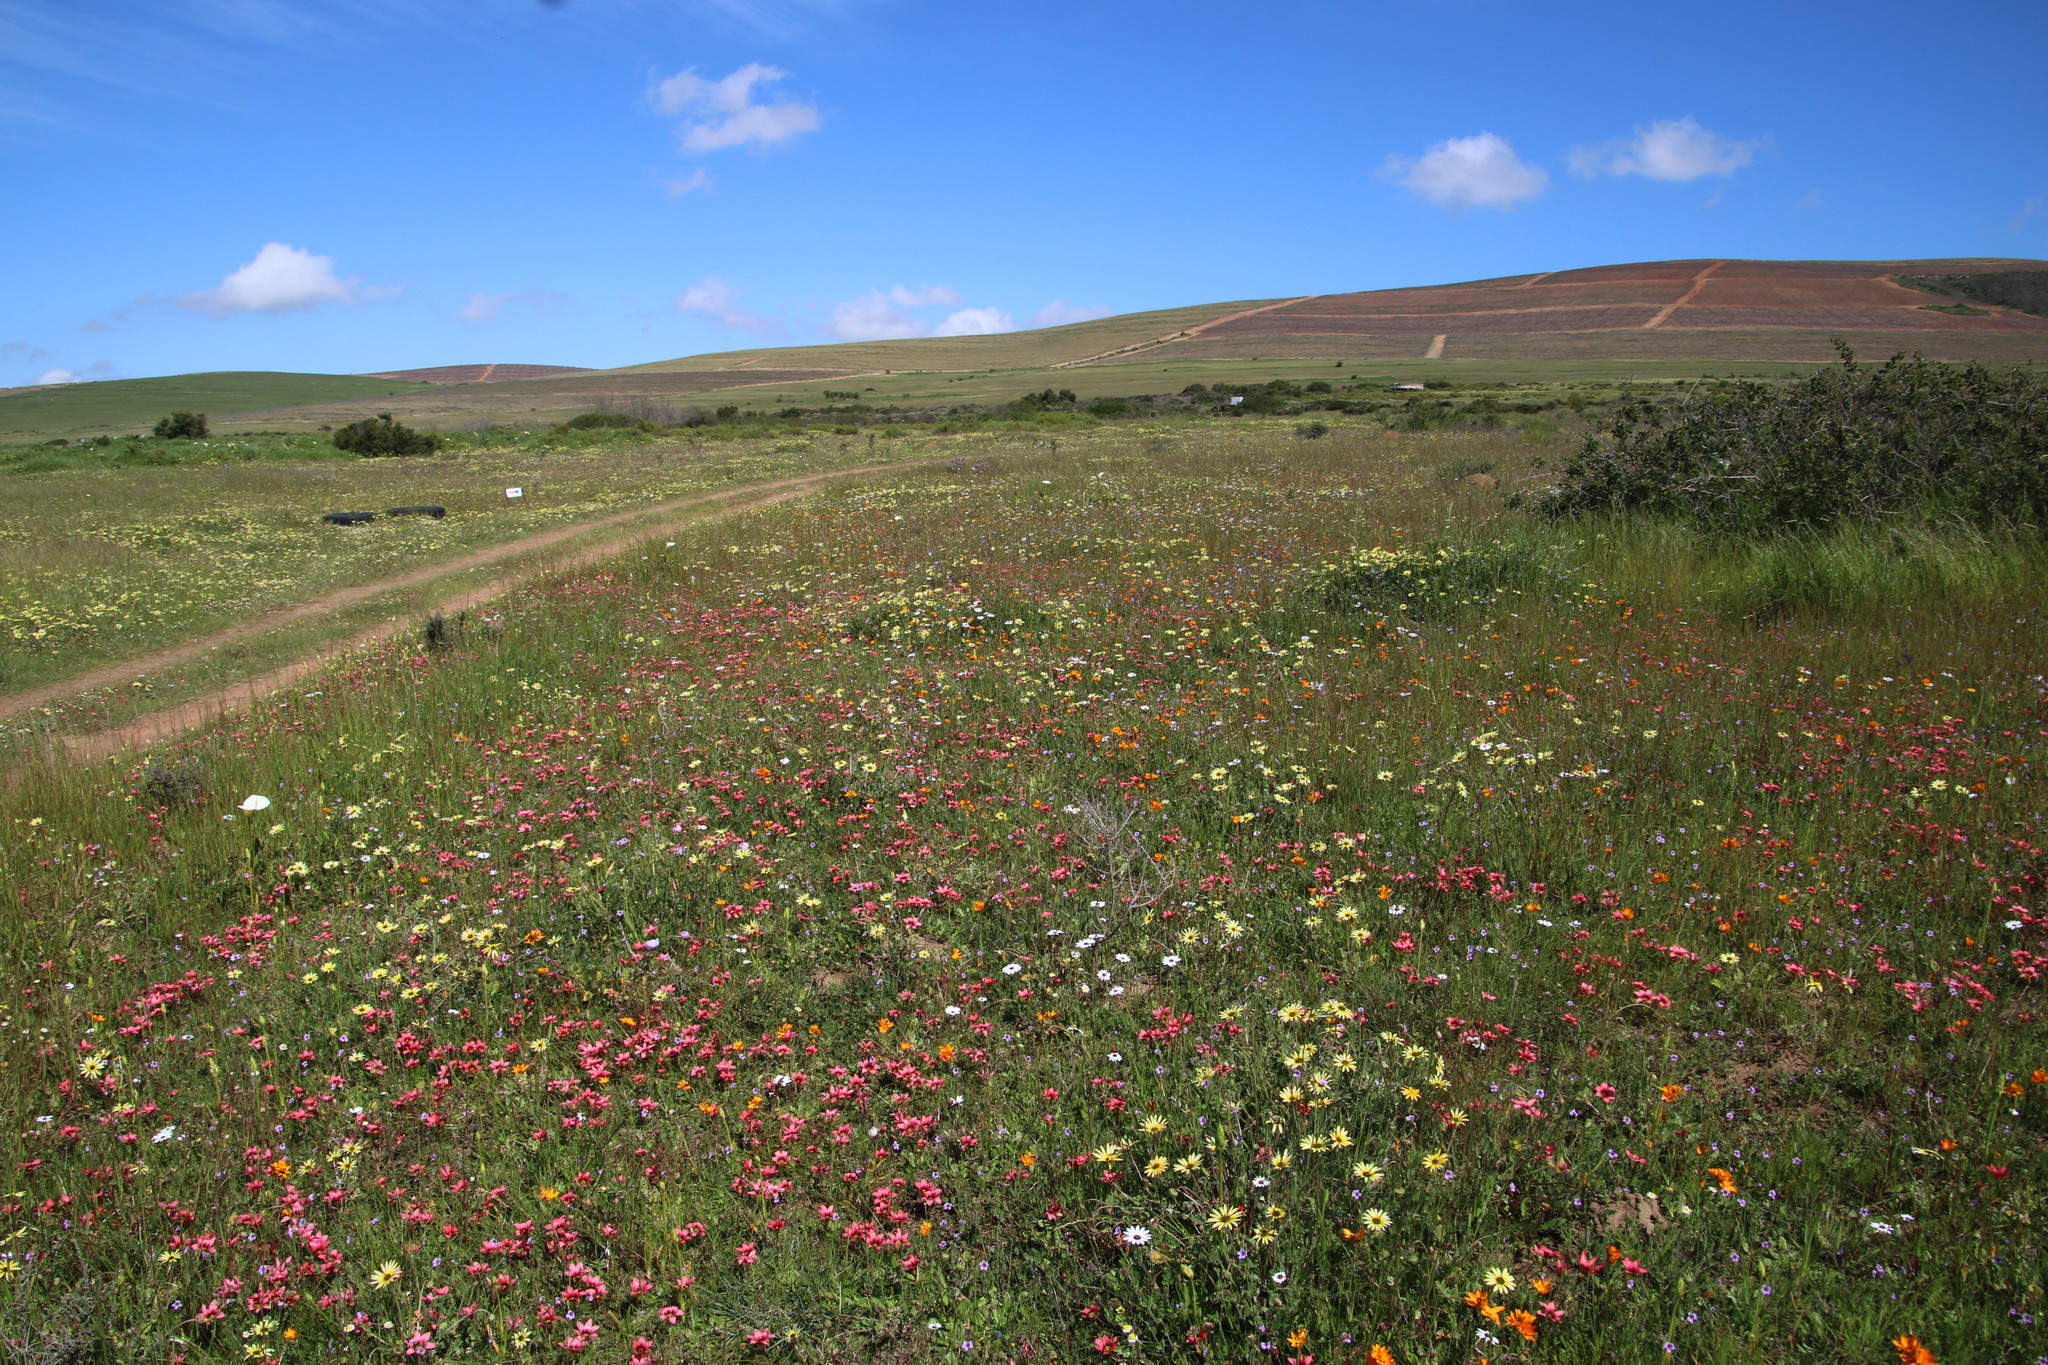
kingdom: Plantae
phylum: Tracheophyta
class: Liliopsida
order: Asparagales
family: Iridaceae
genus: Ixia
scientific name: Ixia maculata
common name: Spotted african cornlily
